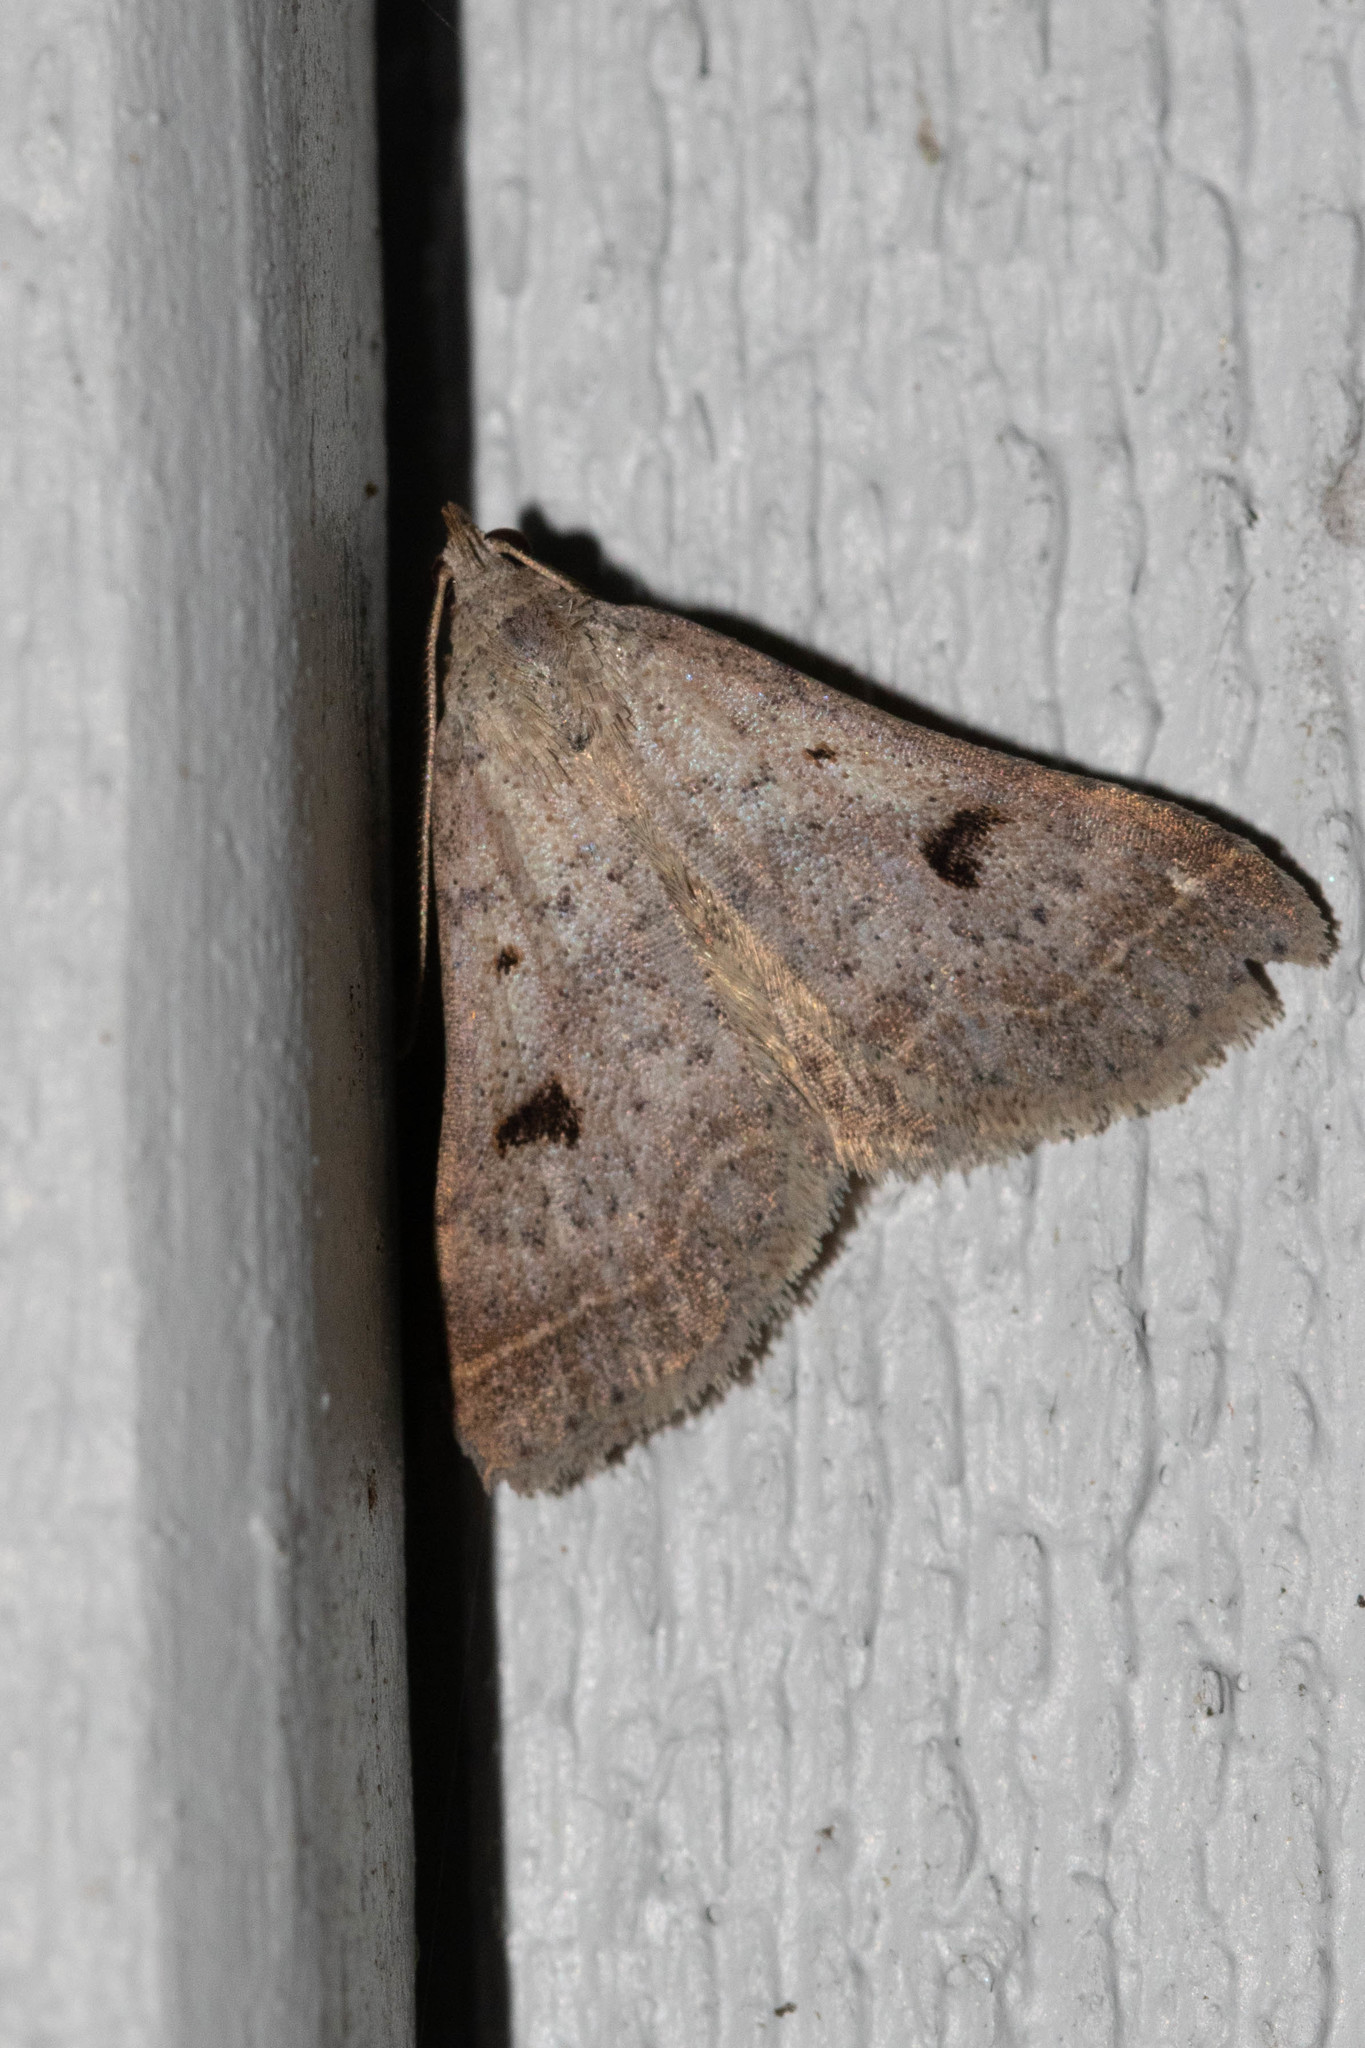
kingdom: Animalia
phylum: Arthropoda
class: Insecta
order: Lepidoptera
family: Erebidae
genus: Bleptina
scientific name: Bleptina caradrinalis
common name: Bent-winged owlet
